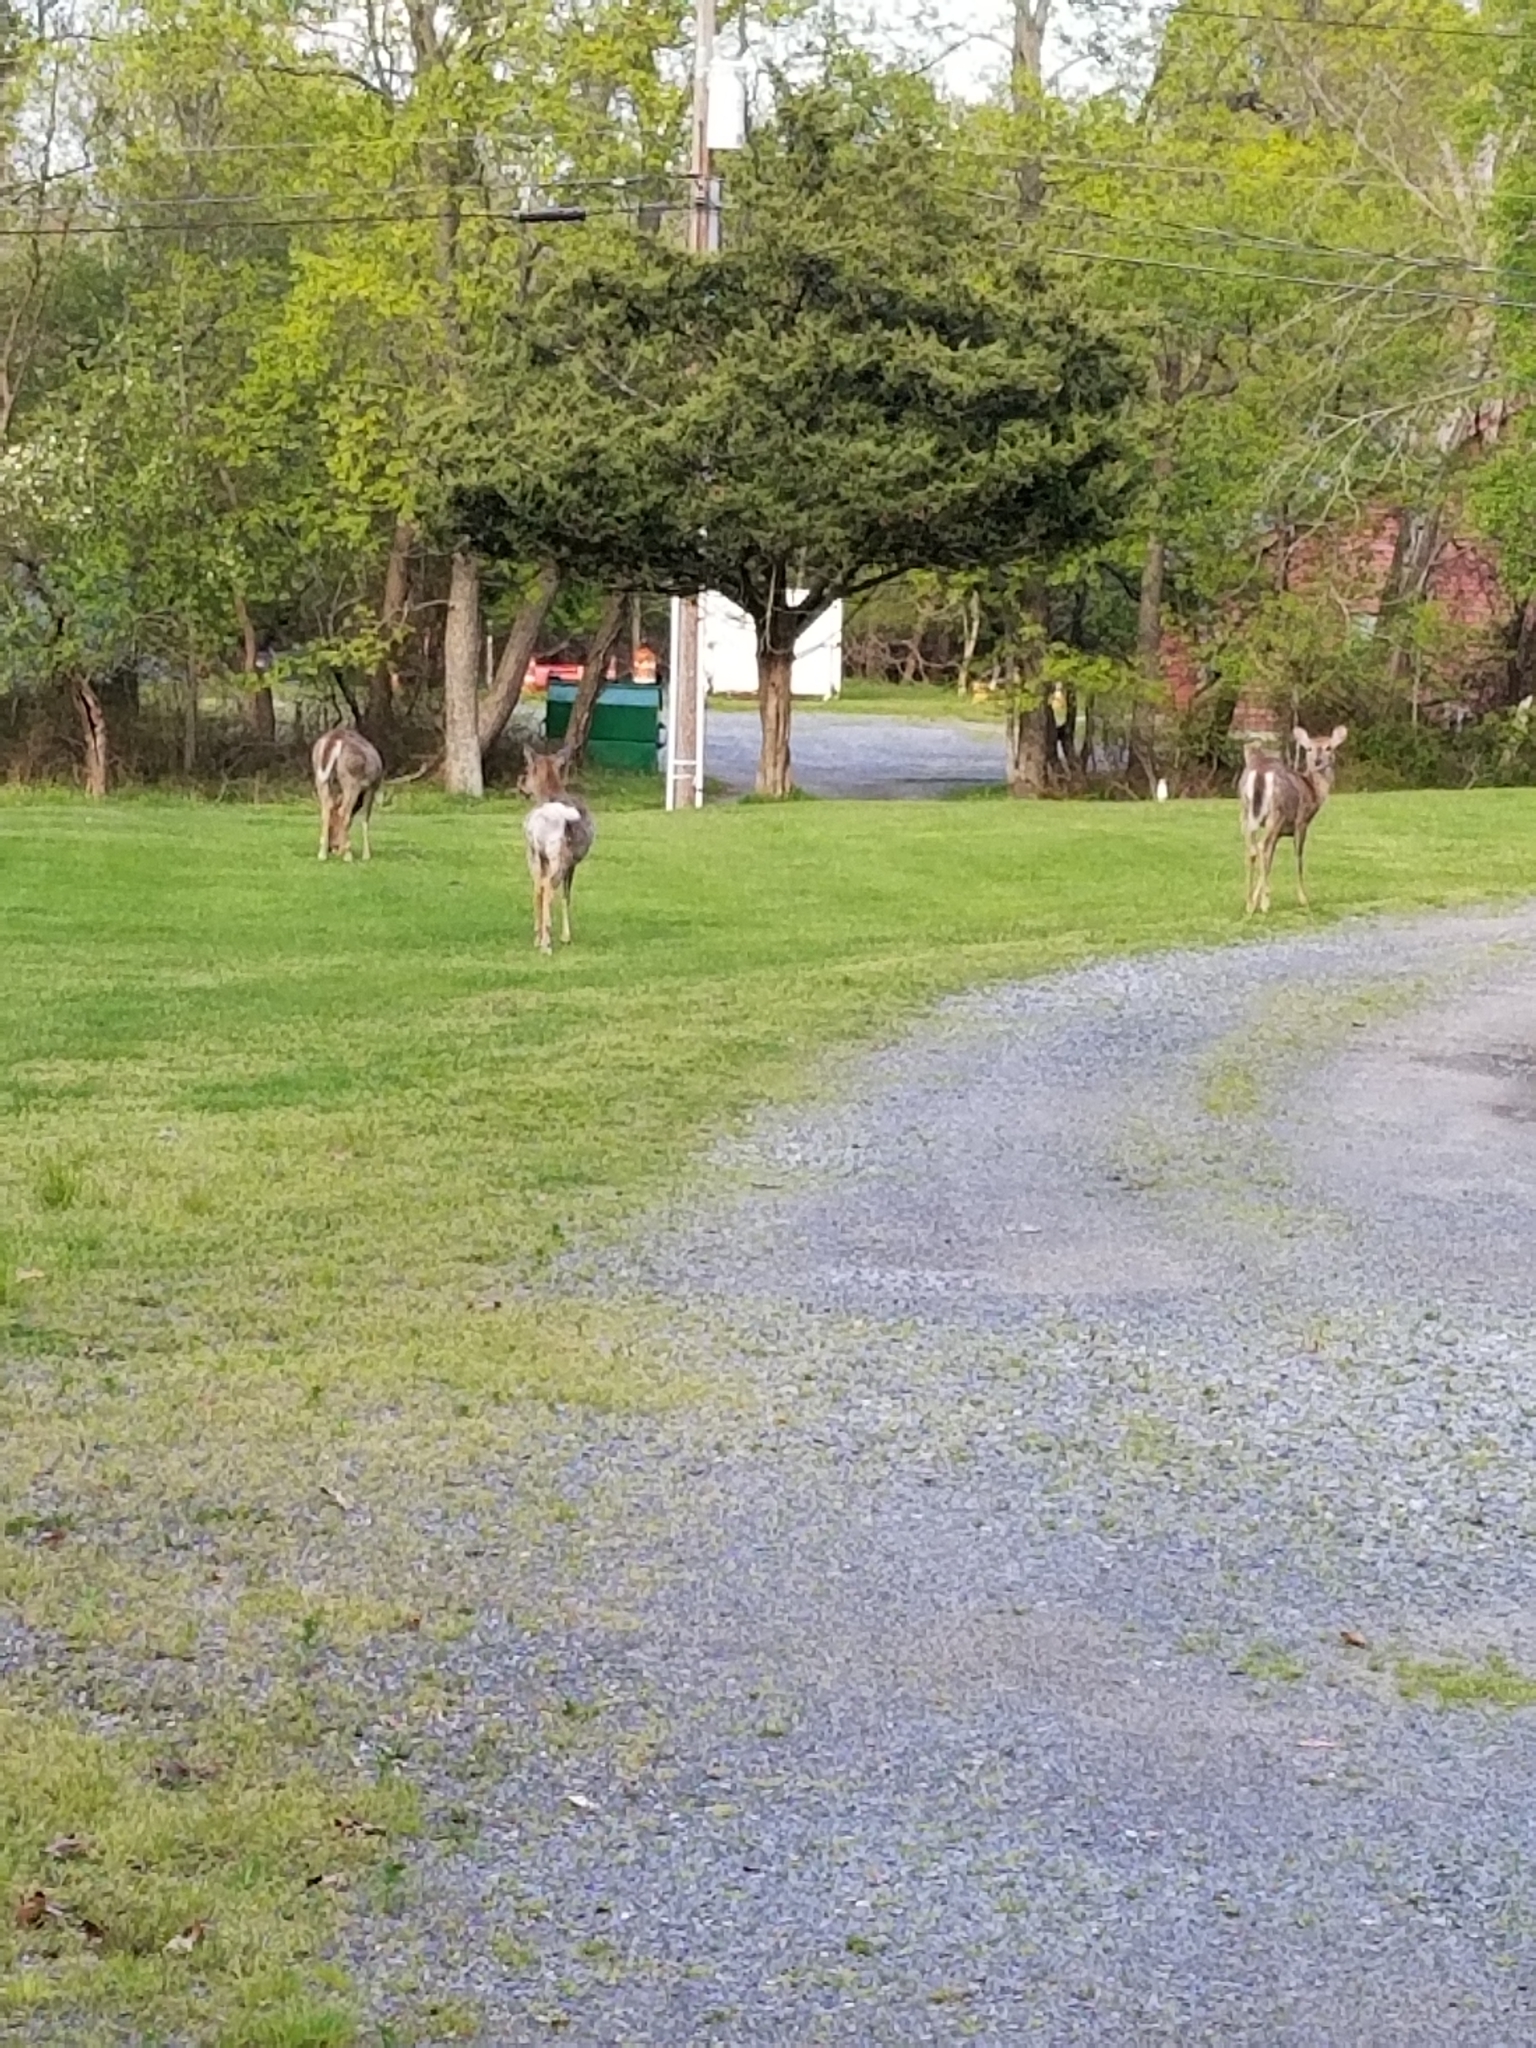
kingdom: Animalia
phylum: Chordata
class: Mammalia
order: Artiodactyla
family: Cervidae
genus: Odocoileus
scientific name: Odocoileus virginianus
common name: White-tailed deer
